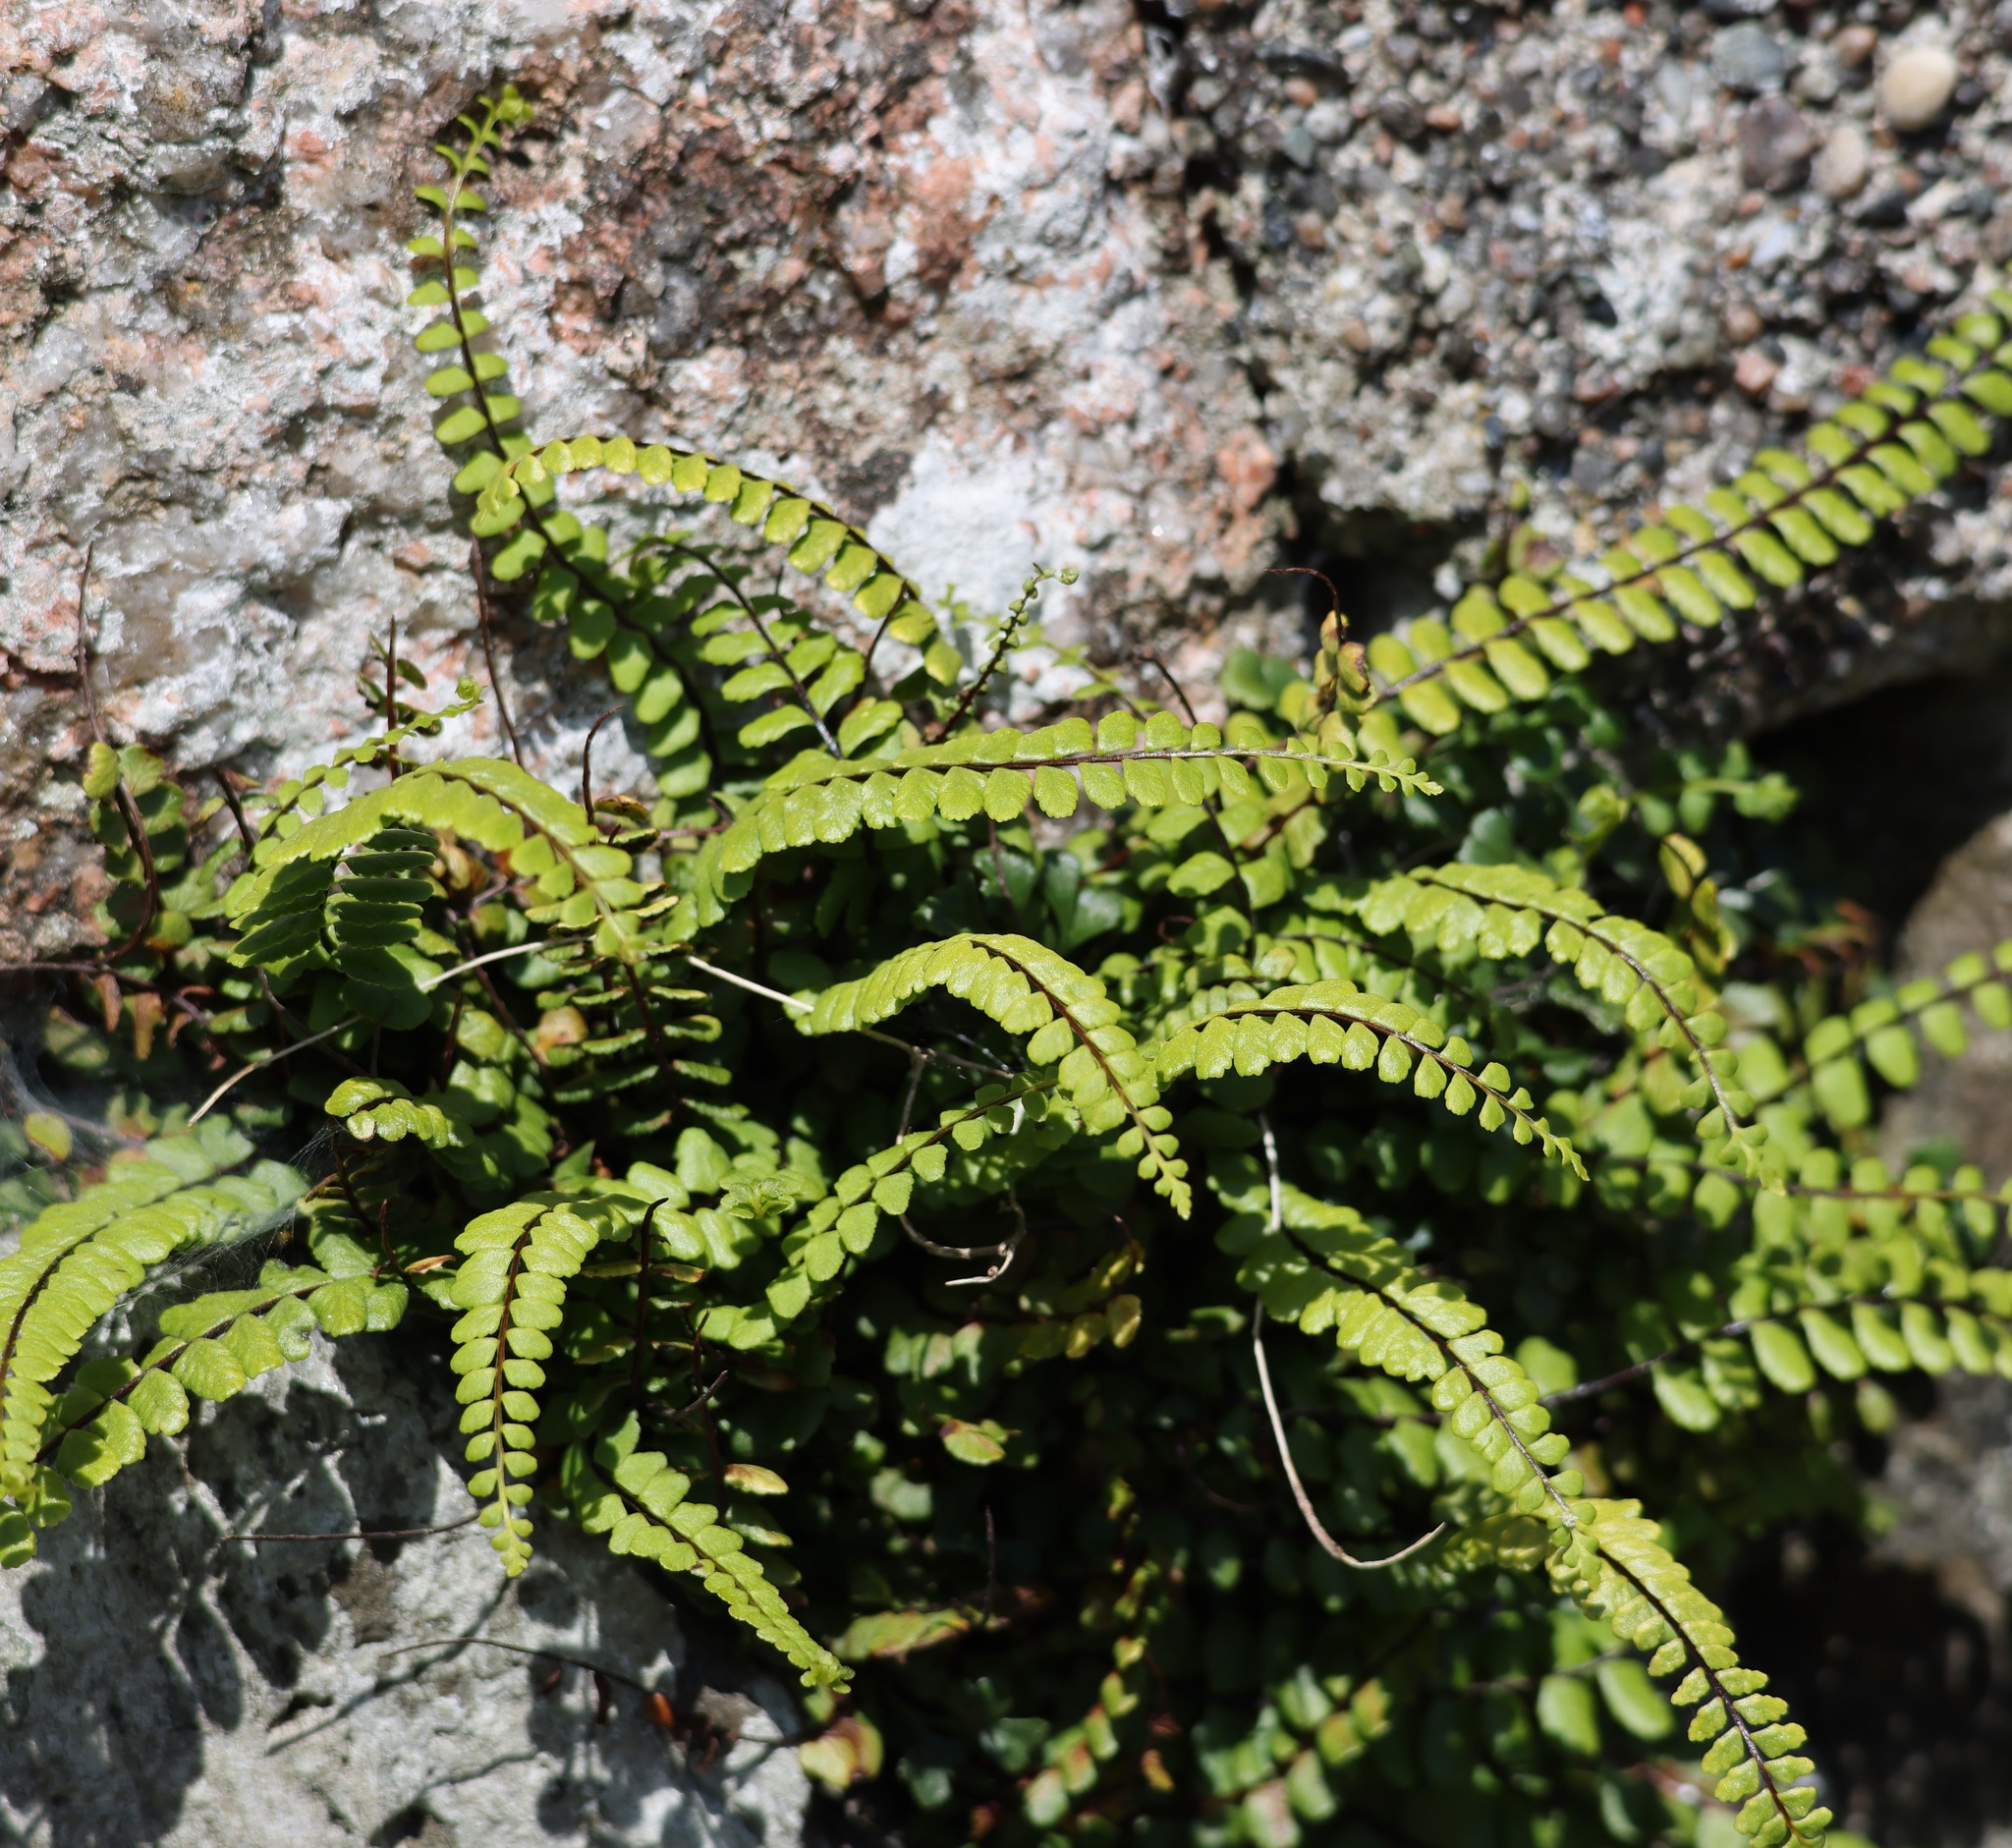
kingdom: Plantae
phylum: Tracheophyta
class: Polypodiopsida
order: Polypodiales
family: Aspleniaceae
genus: Asplenium
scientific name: Asplenium trichomanes
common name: Maidenhair spleenwort
